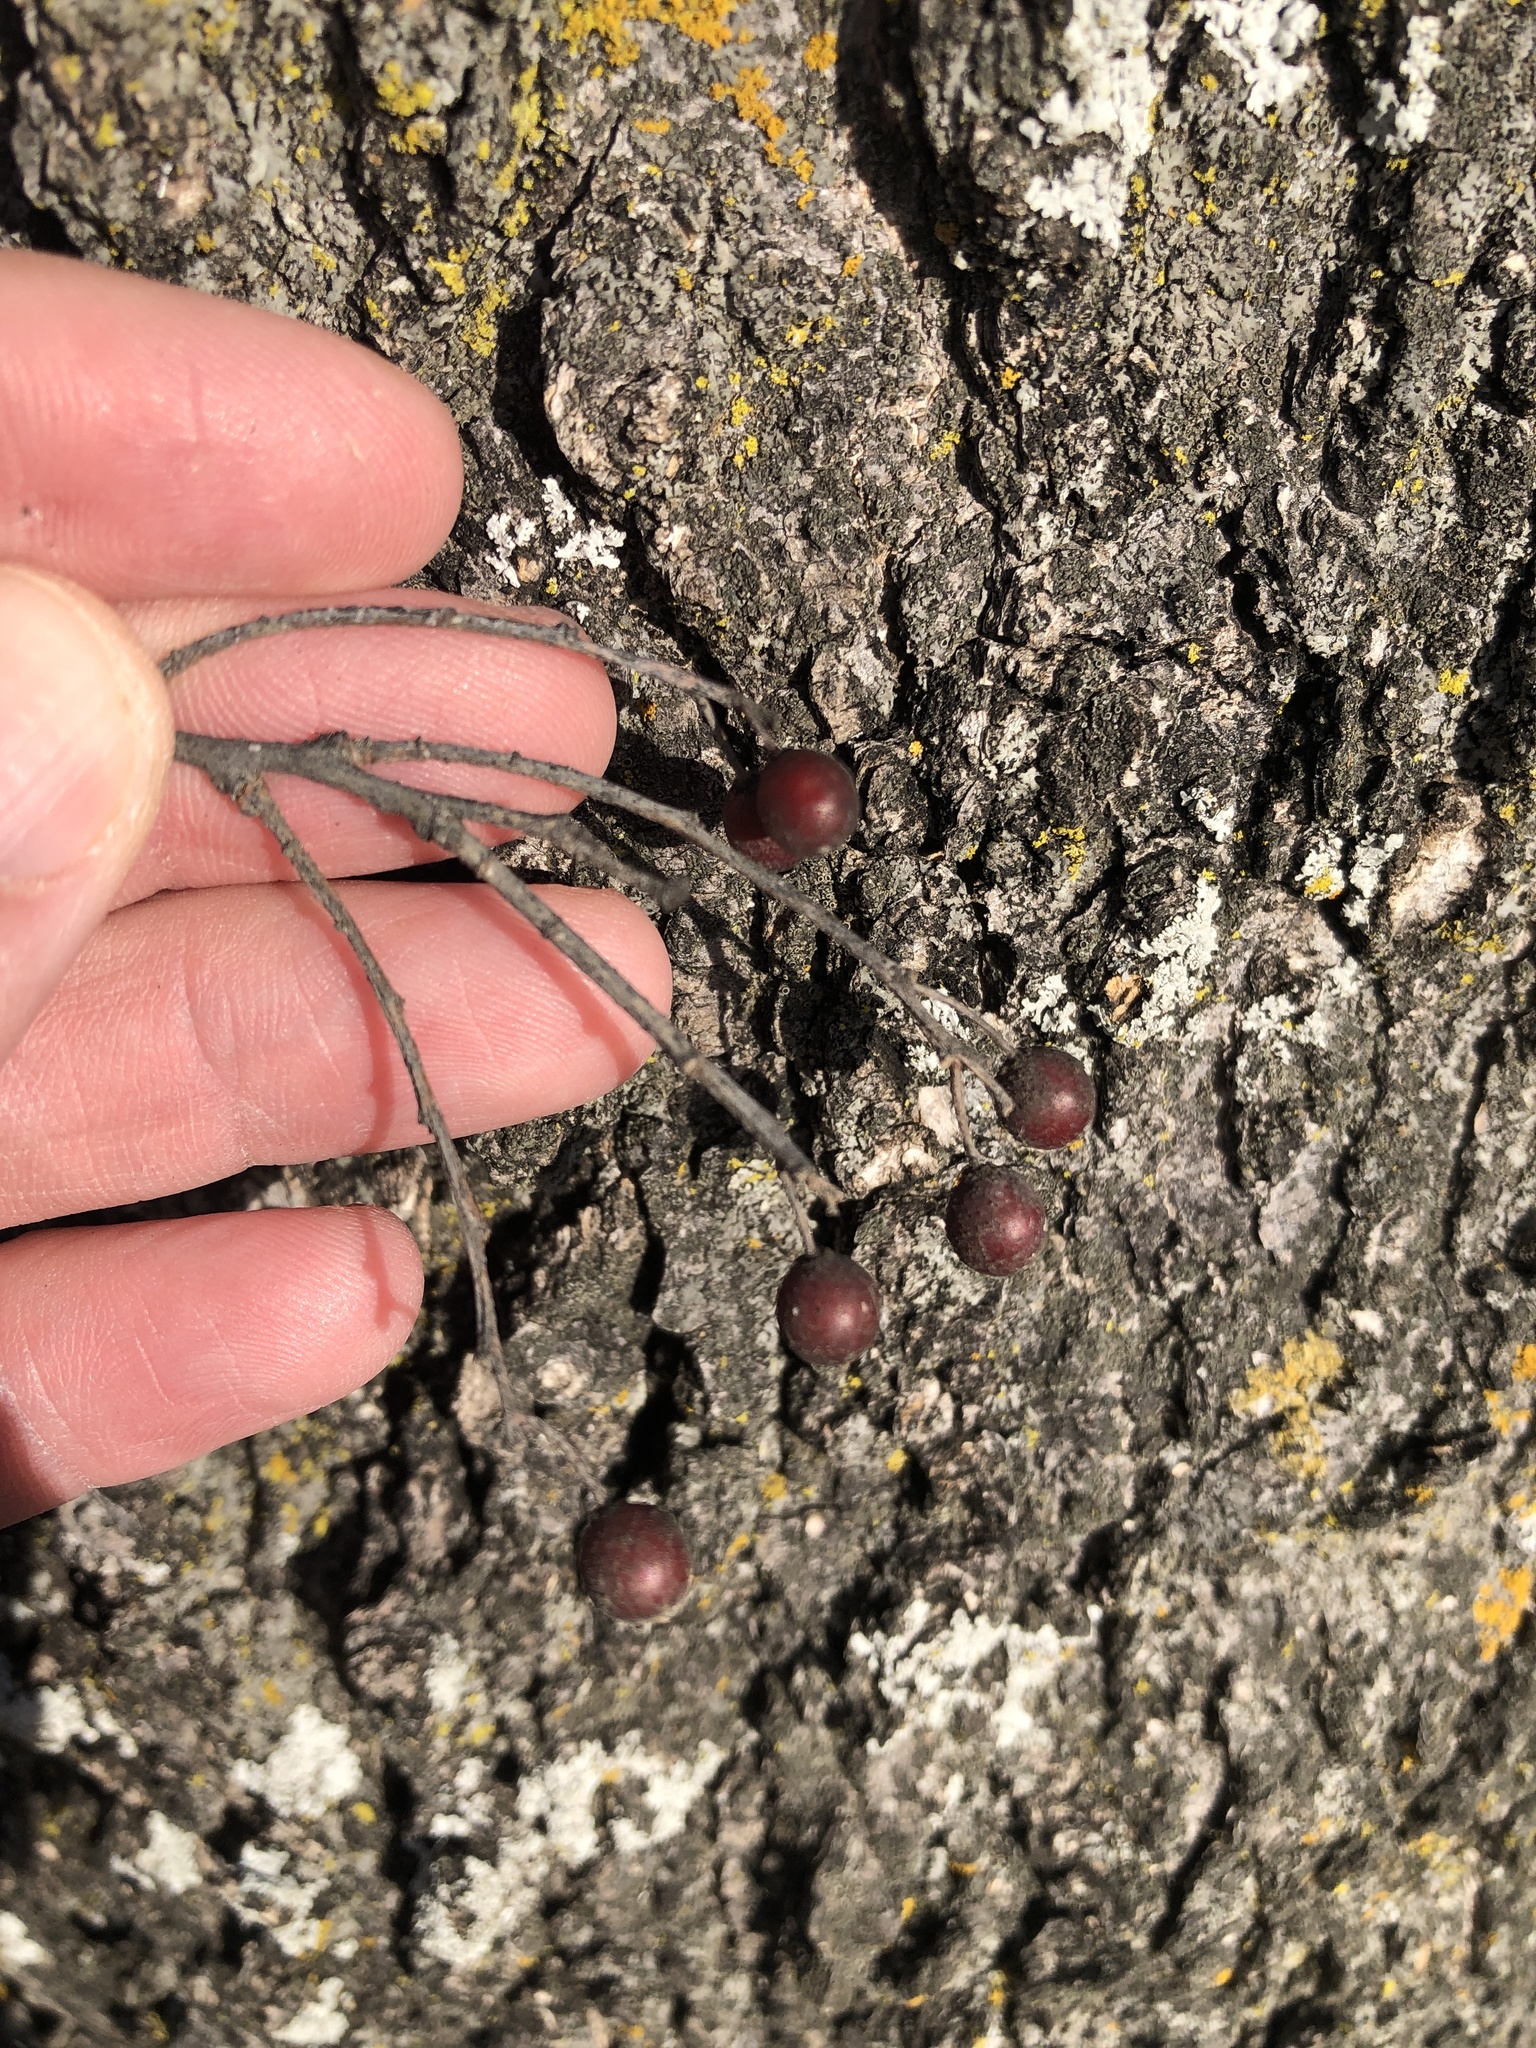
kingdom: Plantae
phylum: Tracheophyta
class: Magnoliopsida
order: Rosales
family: Cannabaceae
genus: Celtis
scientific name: Celtis laevigata
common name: Sugarberry
